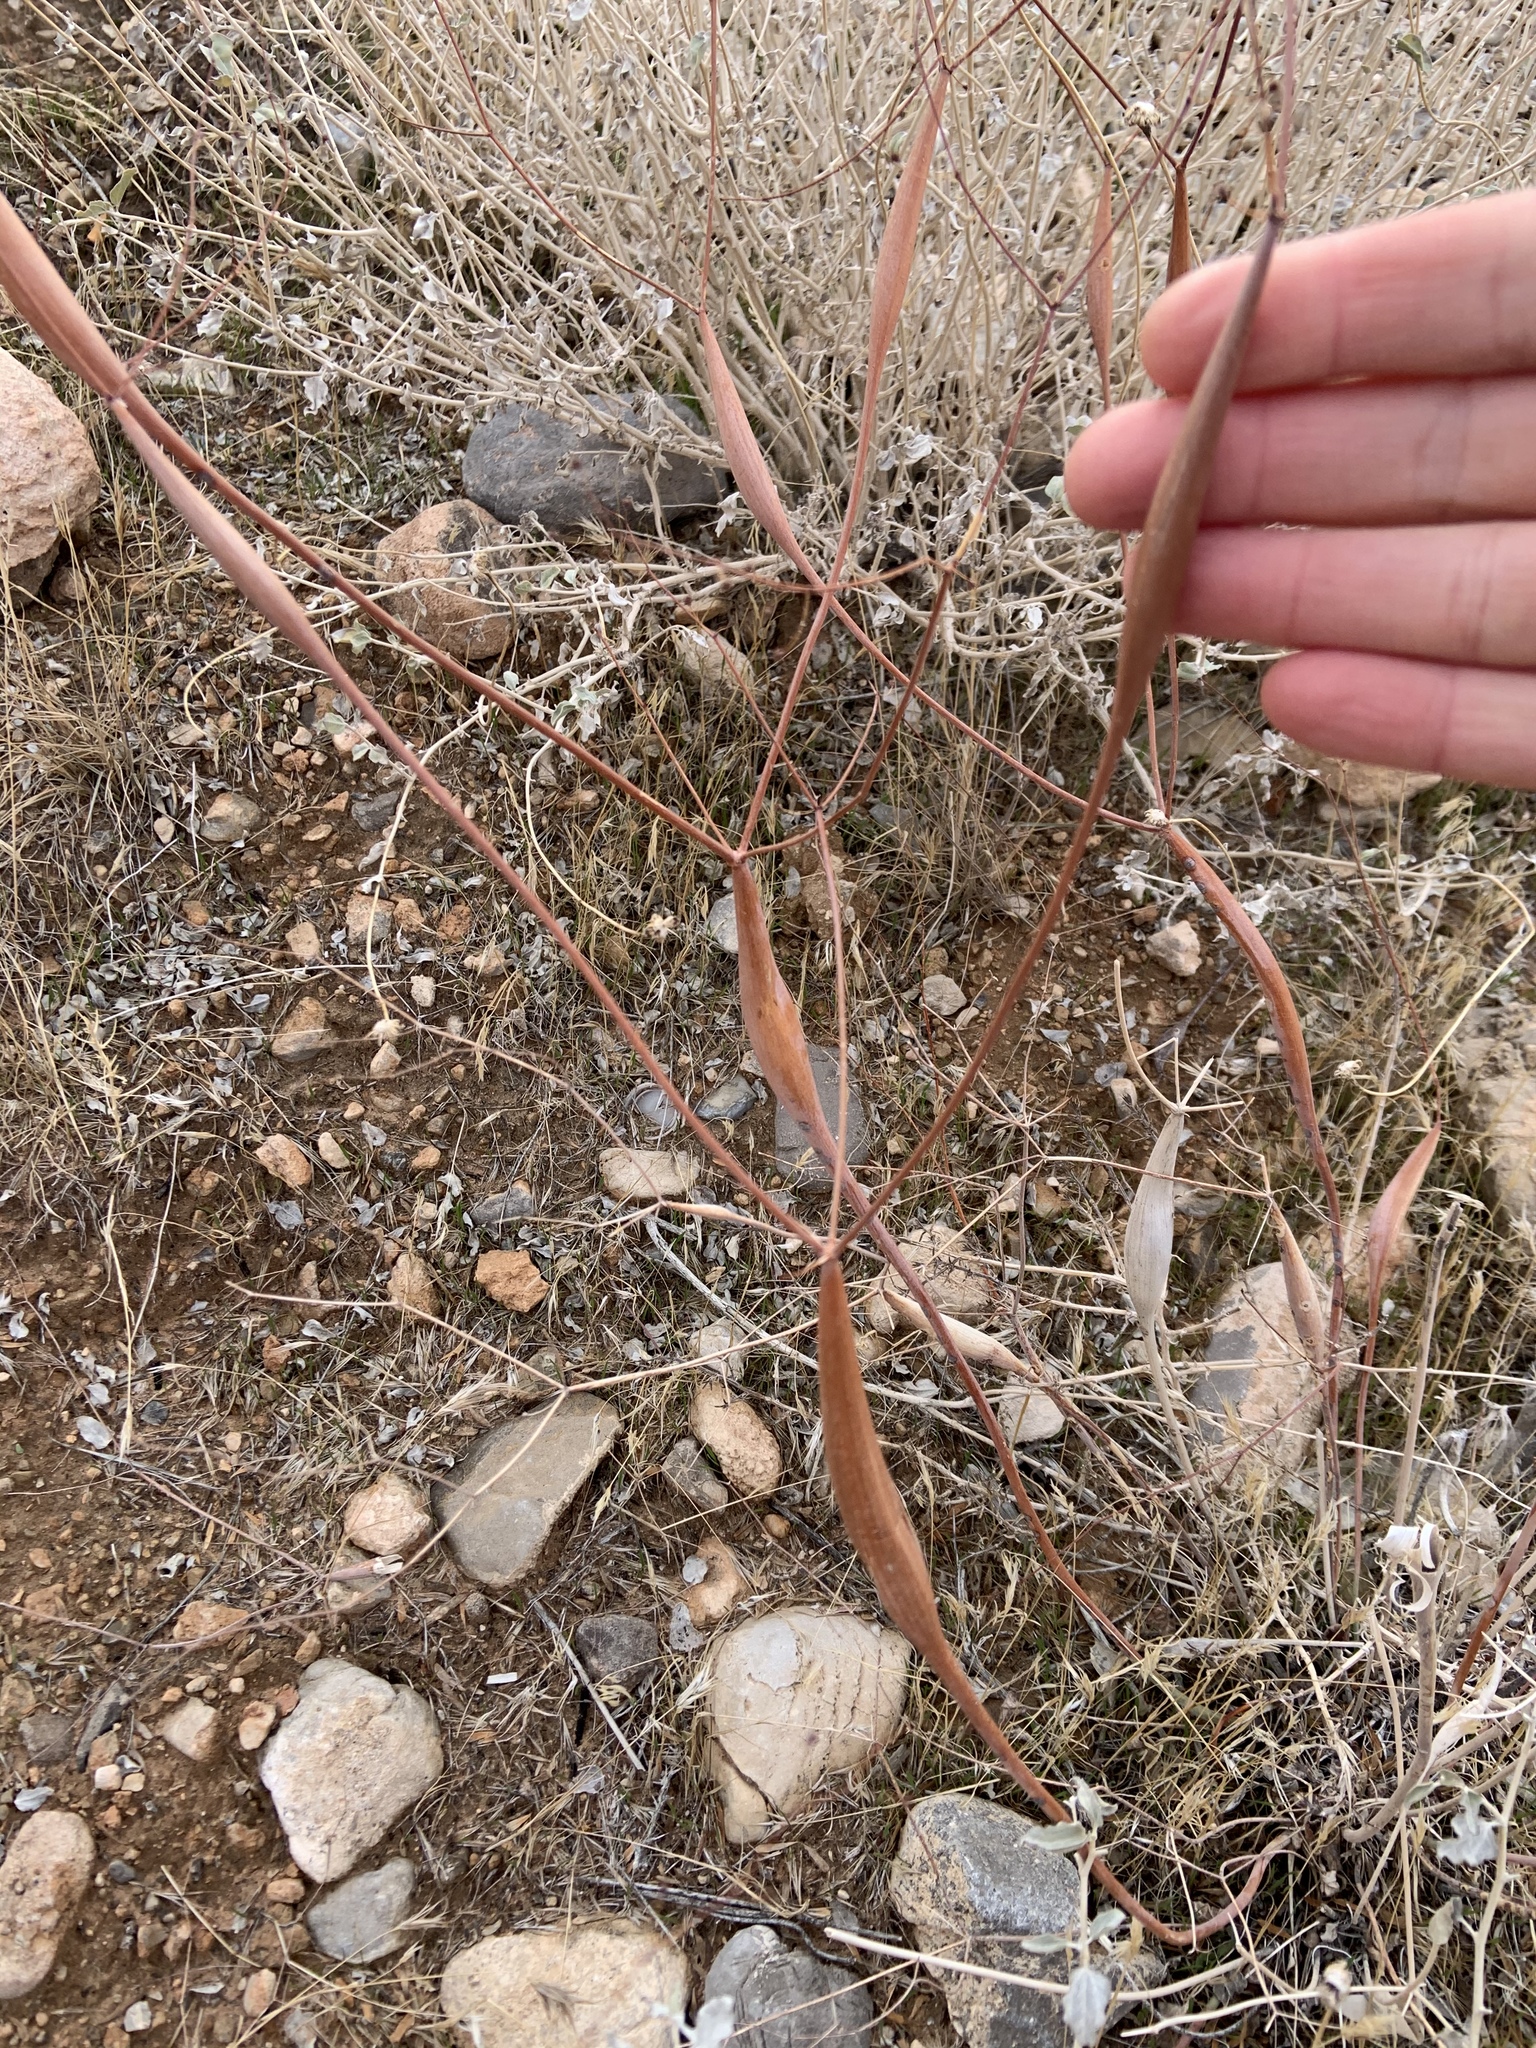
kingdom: Plantae
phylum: Tracheophyta
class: Magnoliopsida
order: Caryophyllales
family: Polygonaceae
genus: Eriogonum
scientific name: Eriogonum inflatum
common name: Desert trumpet
